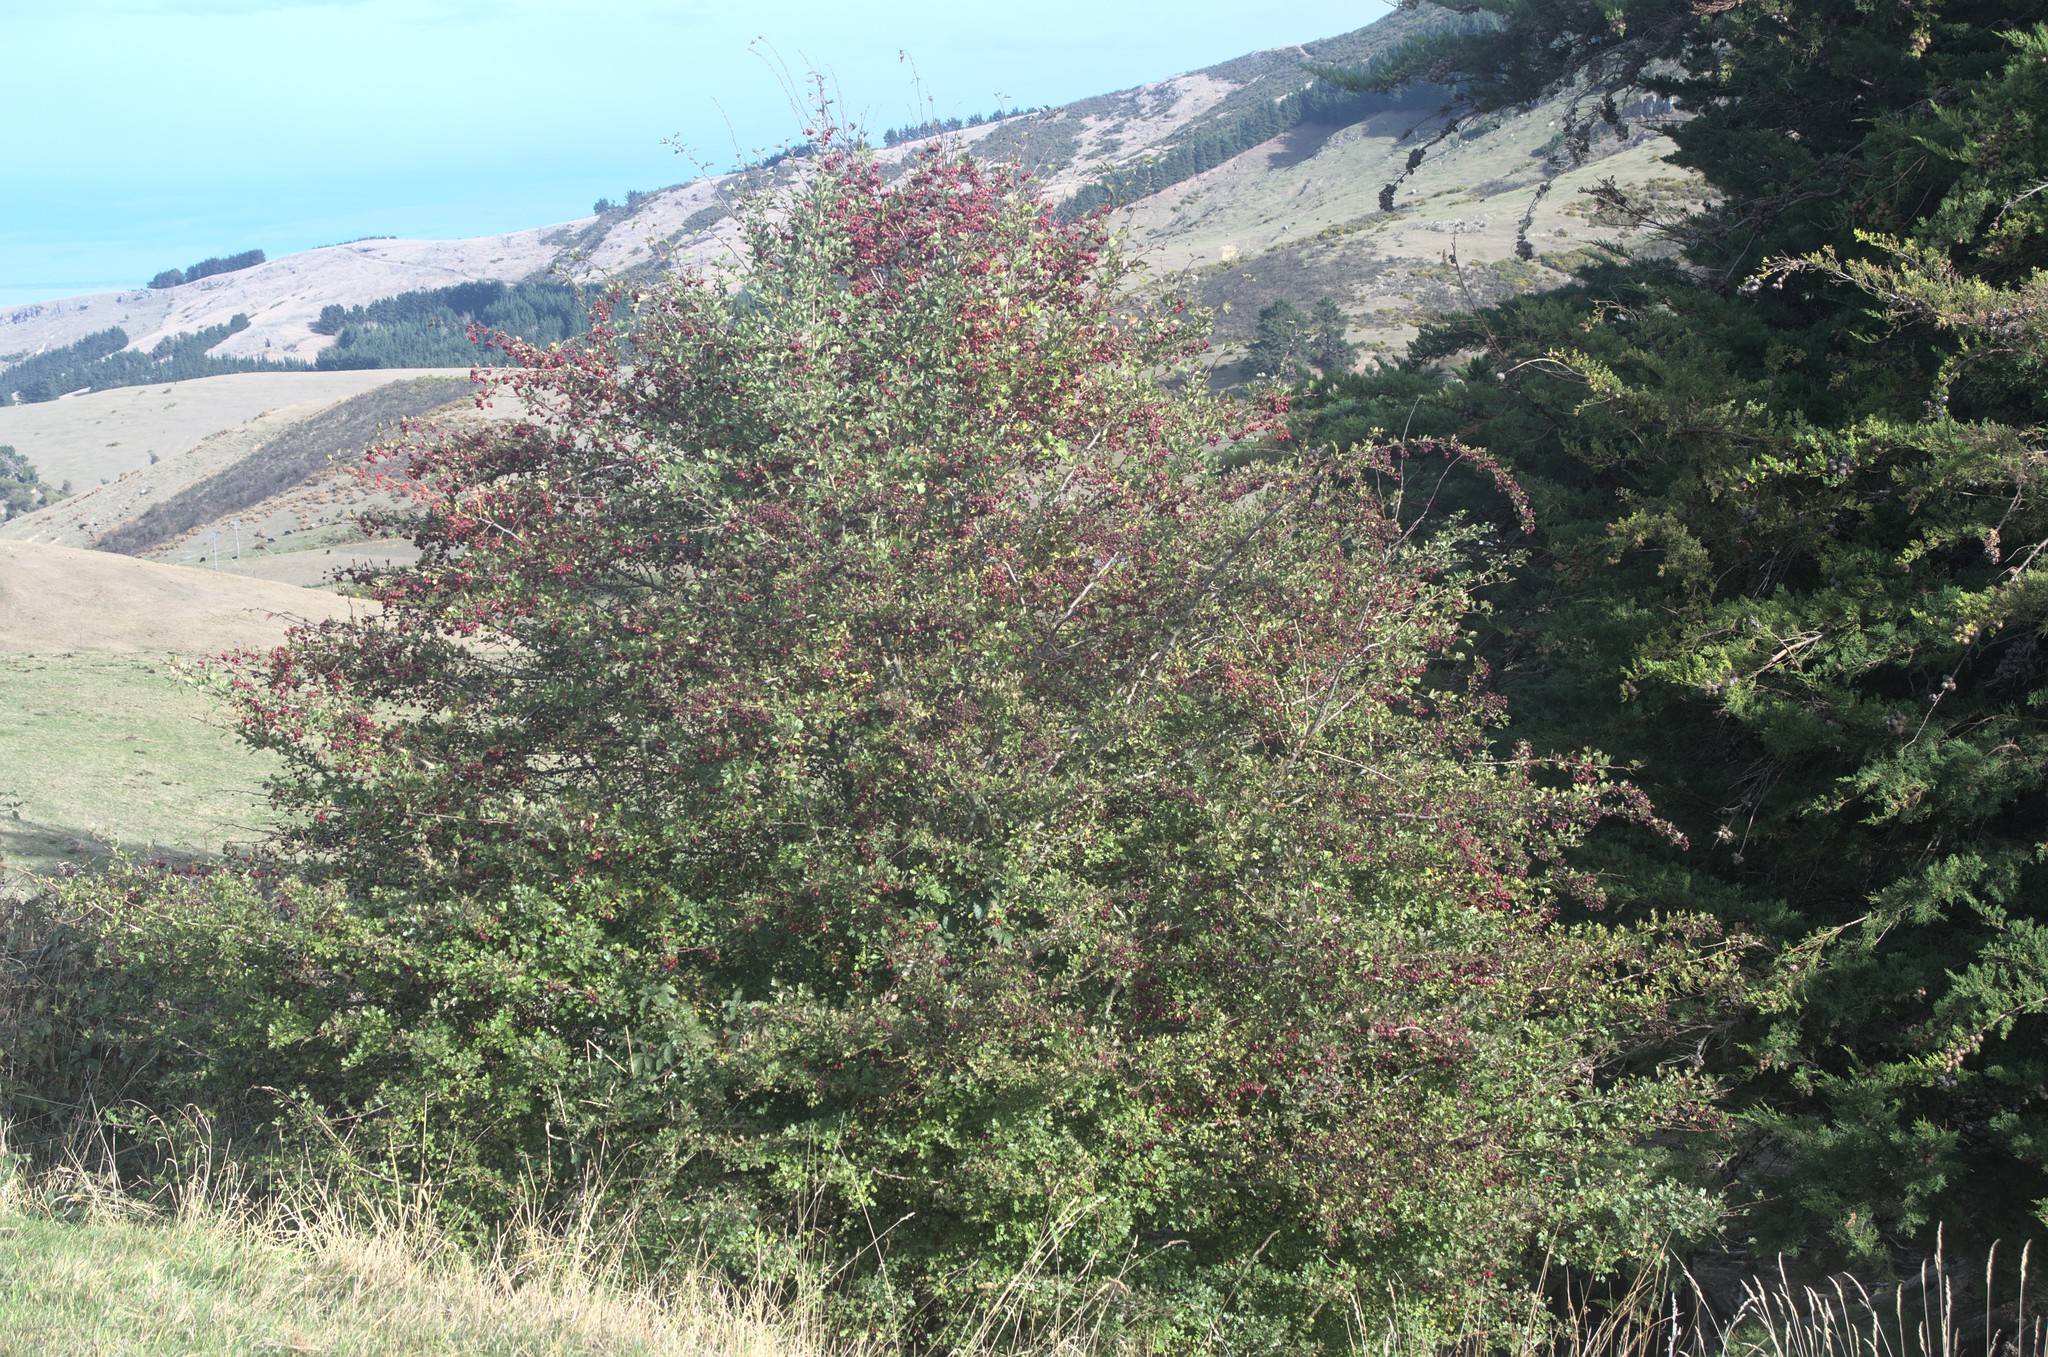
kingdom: Plantae
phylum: Tracheophyta
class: Magnoliopsida
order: Rosales
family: Rosaceae
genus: Crataegus
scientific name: Crataegus monogyna
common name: Hawthorn
